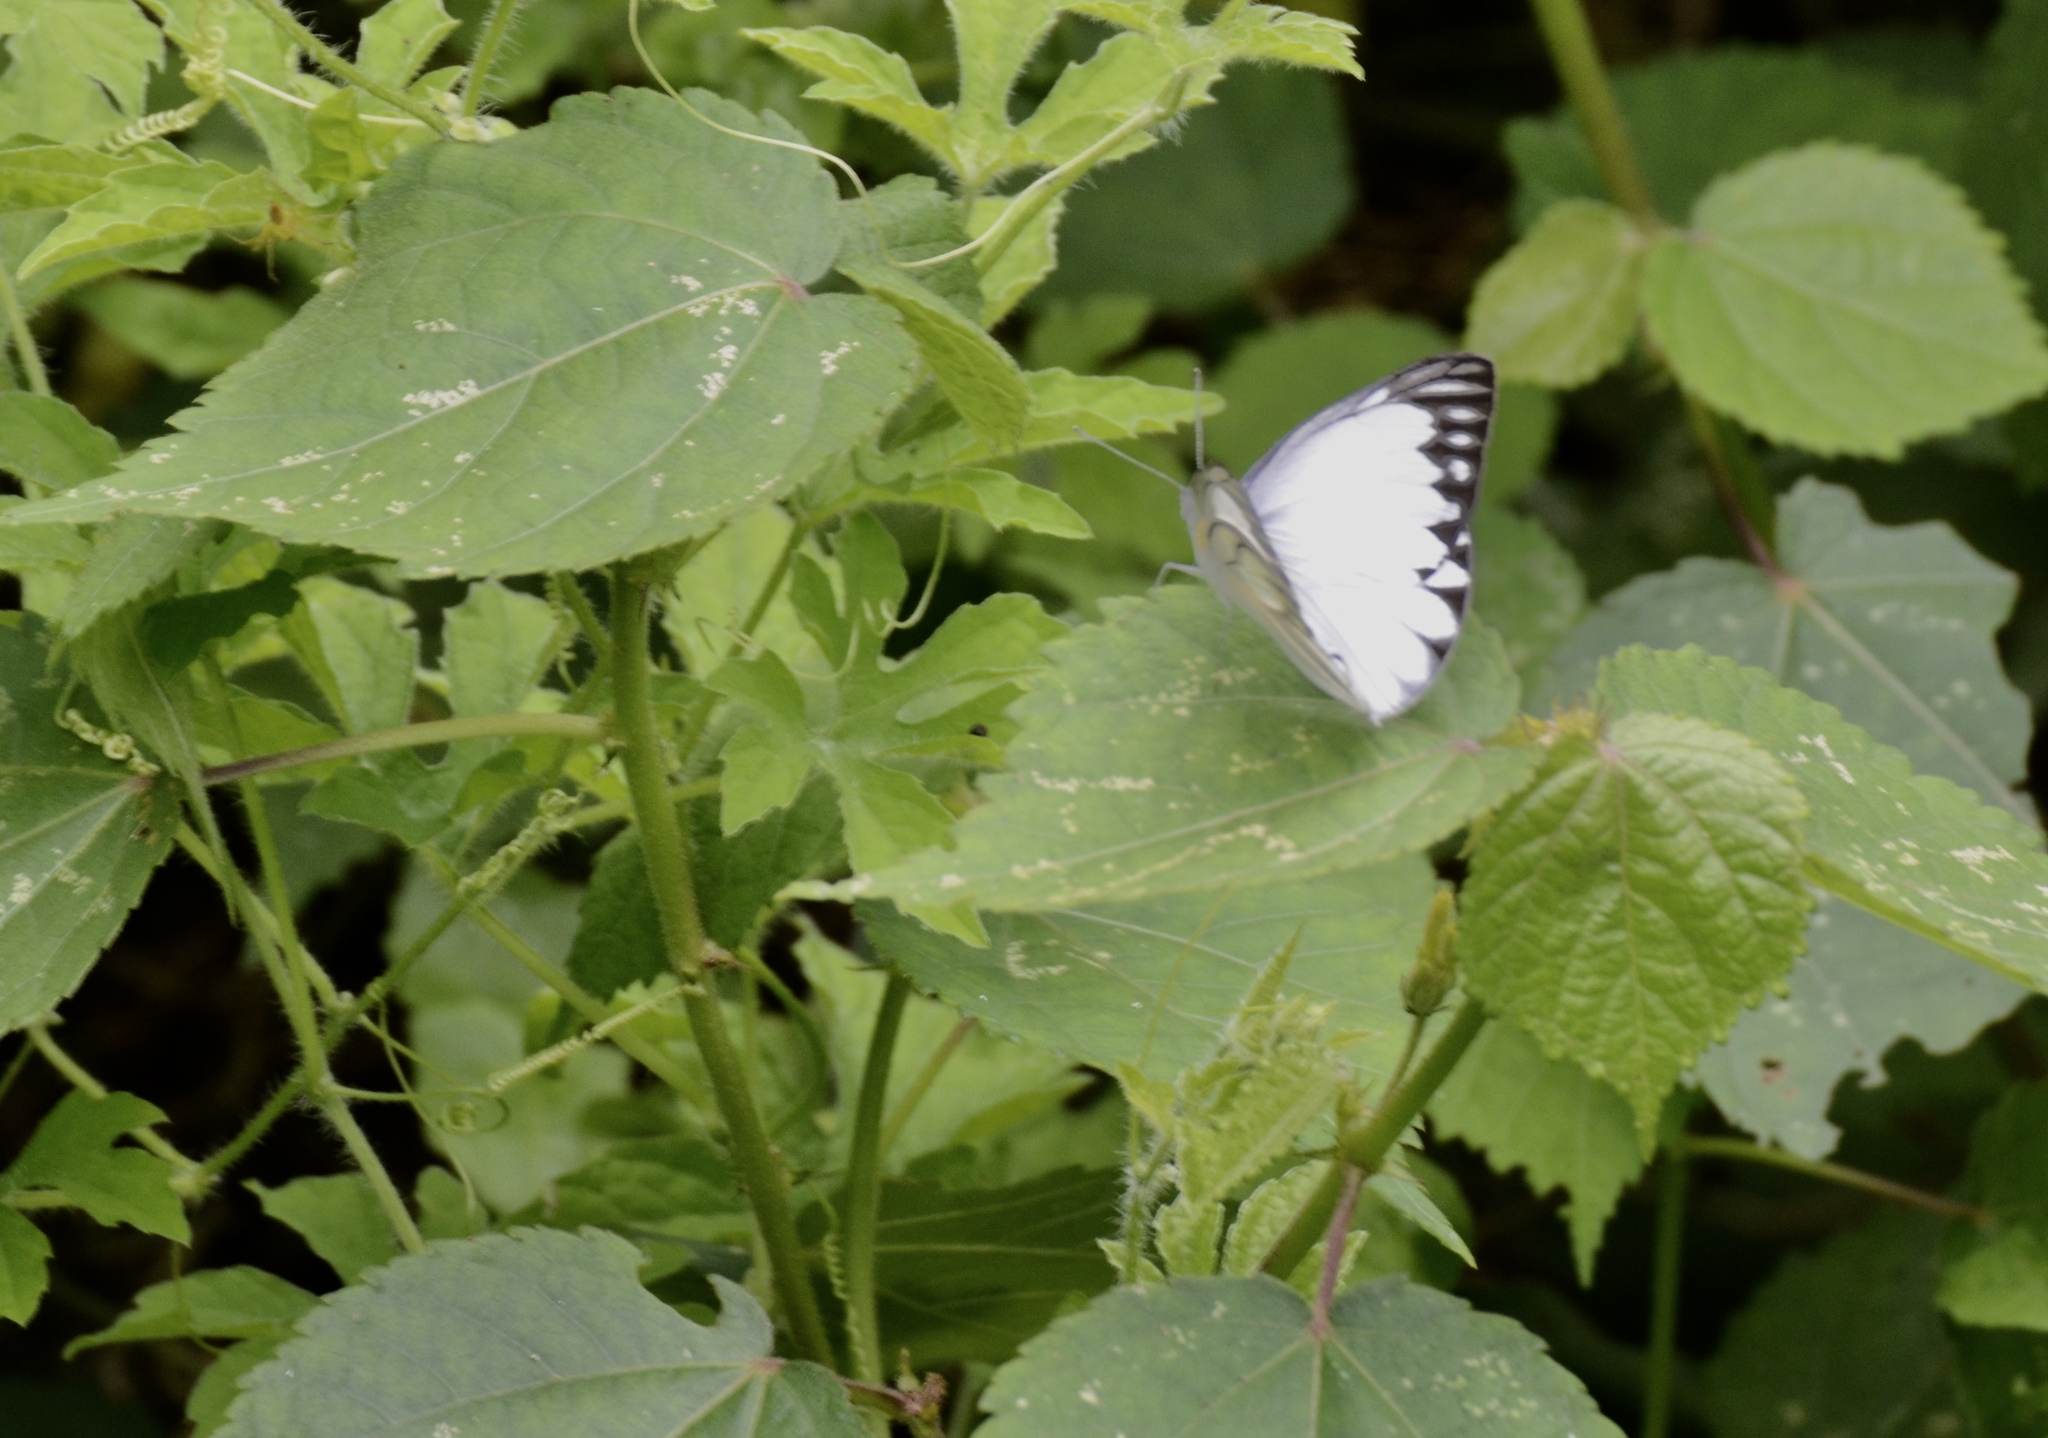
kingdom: Animalia
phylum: Arthropoda
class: Insecta
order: Lepidoptera
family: Pieridae
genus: Appias
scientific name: Appias libythea
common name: Striped albatross
